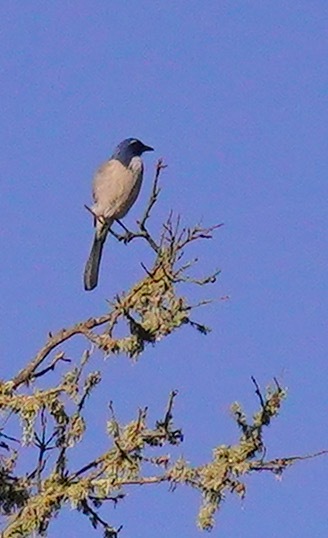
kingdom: Animalia
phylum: Chordata
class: Aves
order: Passeriformes
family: Corvidae
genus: Aphelocoma
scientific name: Aphelocoma californica
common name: California scrub-jay
